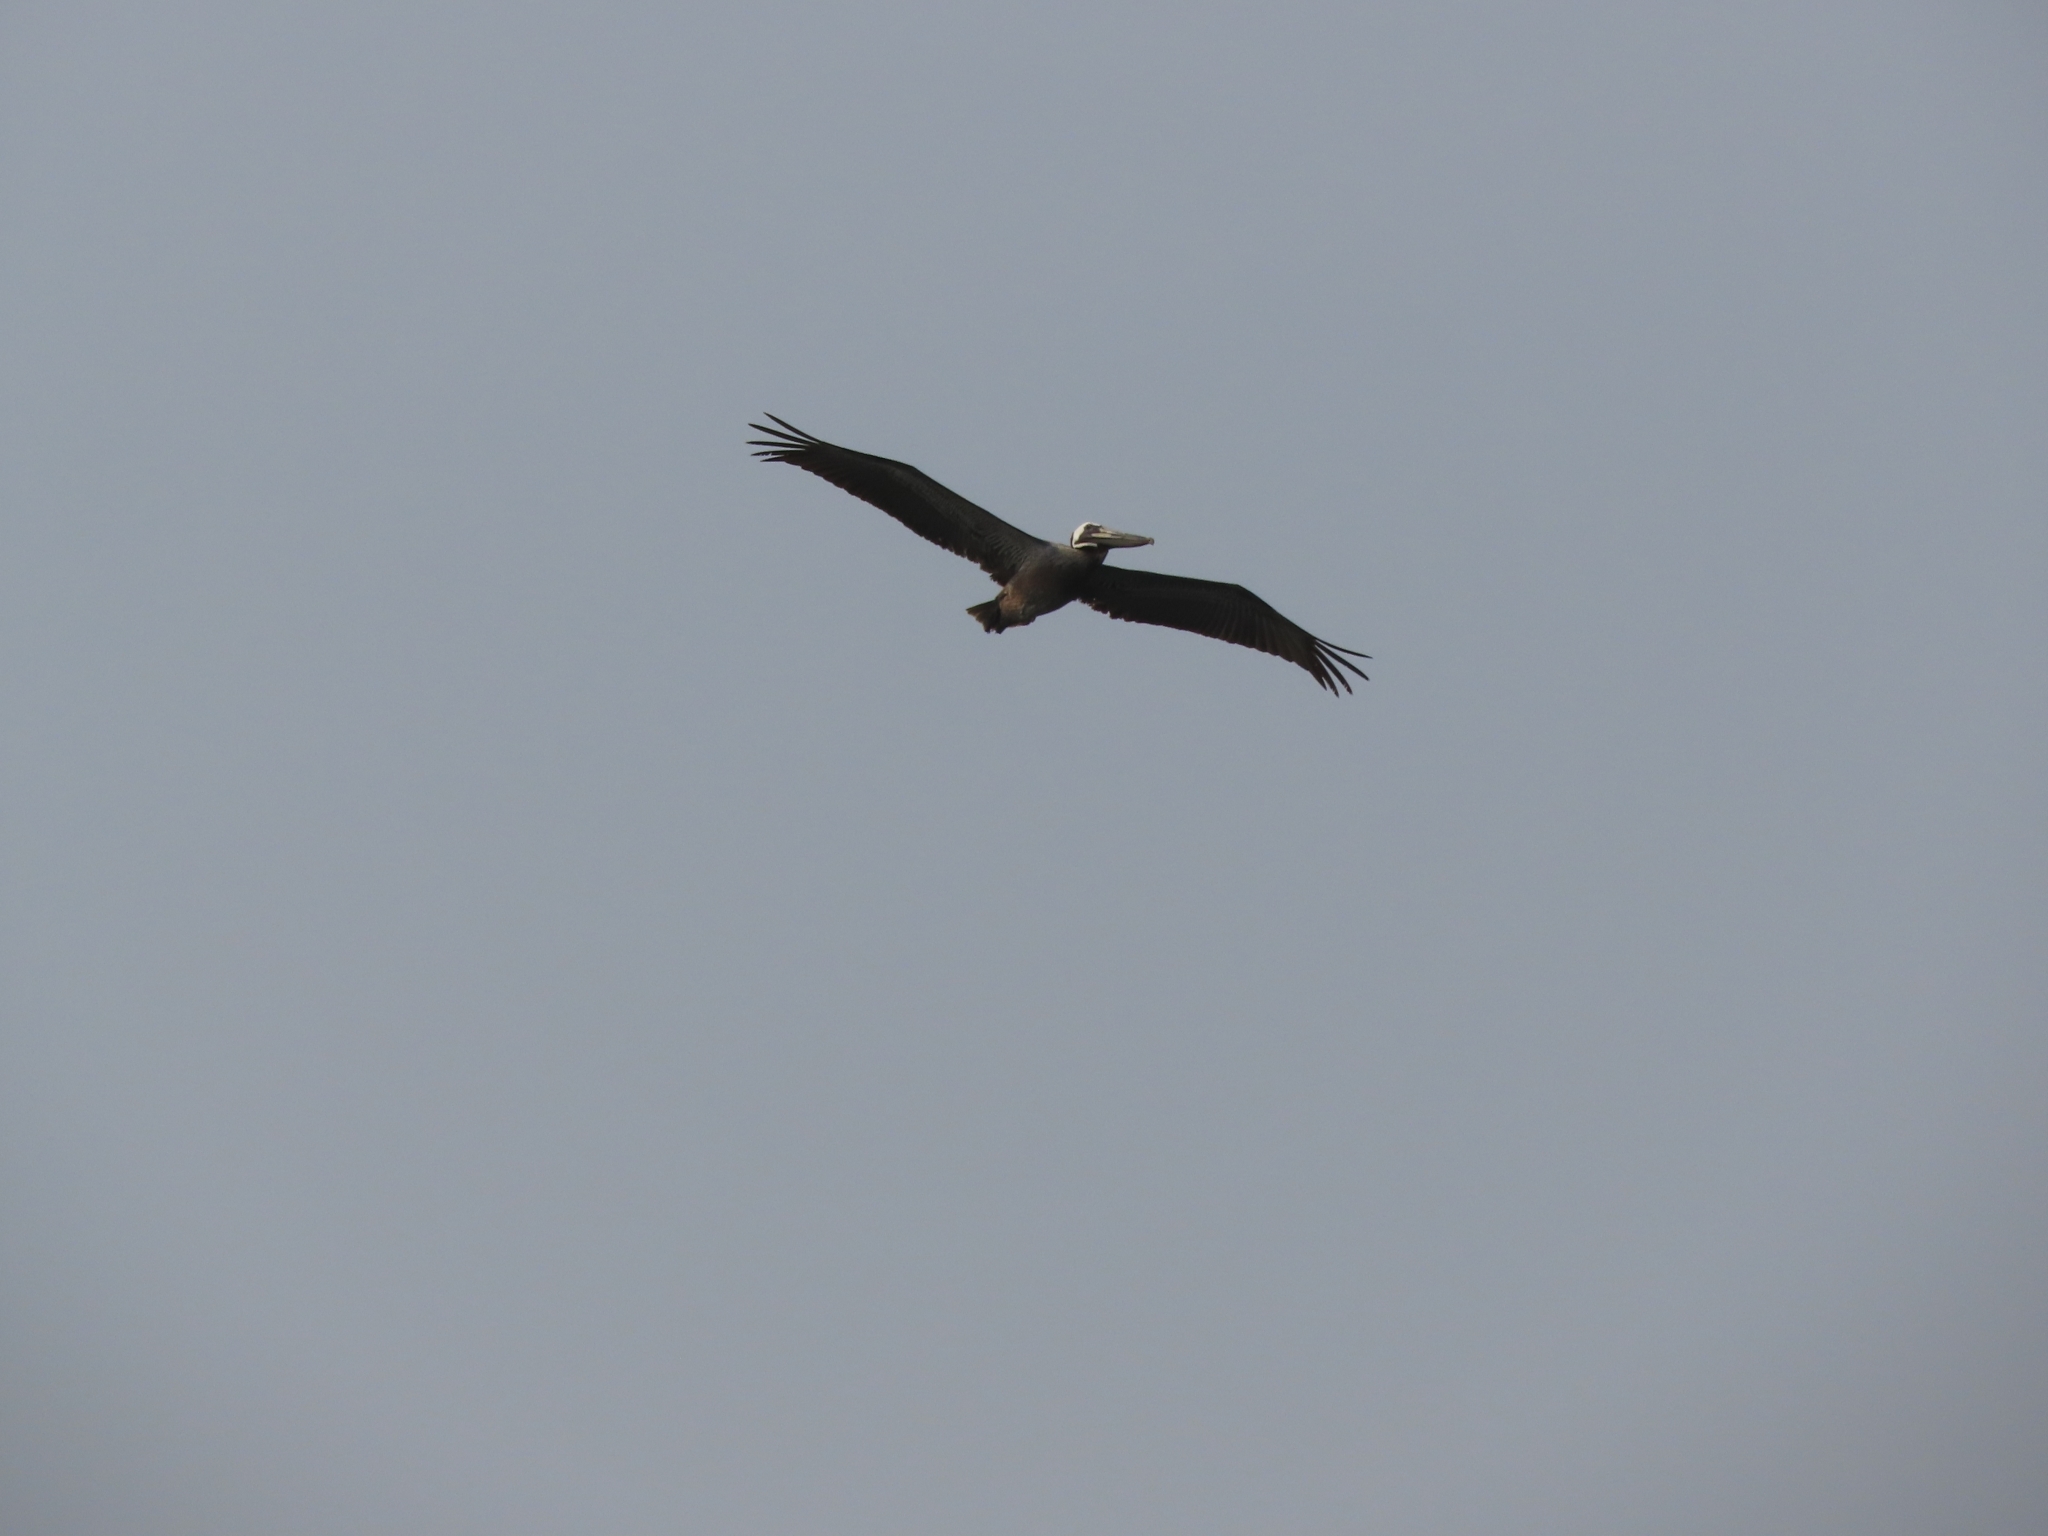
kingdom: Animalia
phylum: Chordata
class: Aves
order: Pelecaniformes
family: Pelecanidae
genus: Pelecanus
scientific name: Pelecanus occidentalis
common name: Brown pelican
